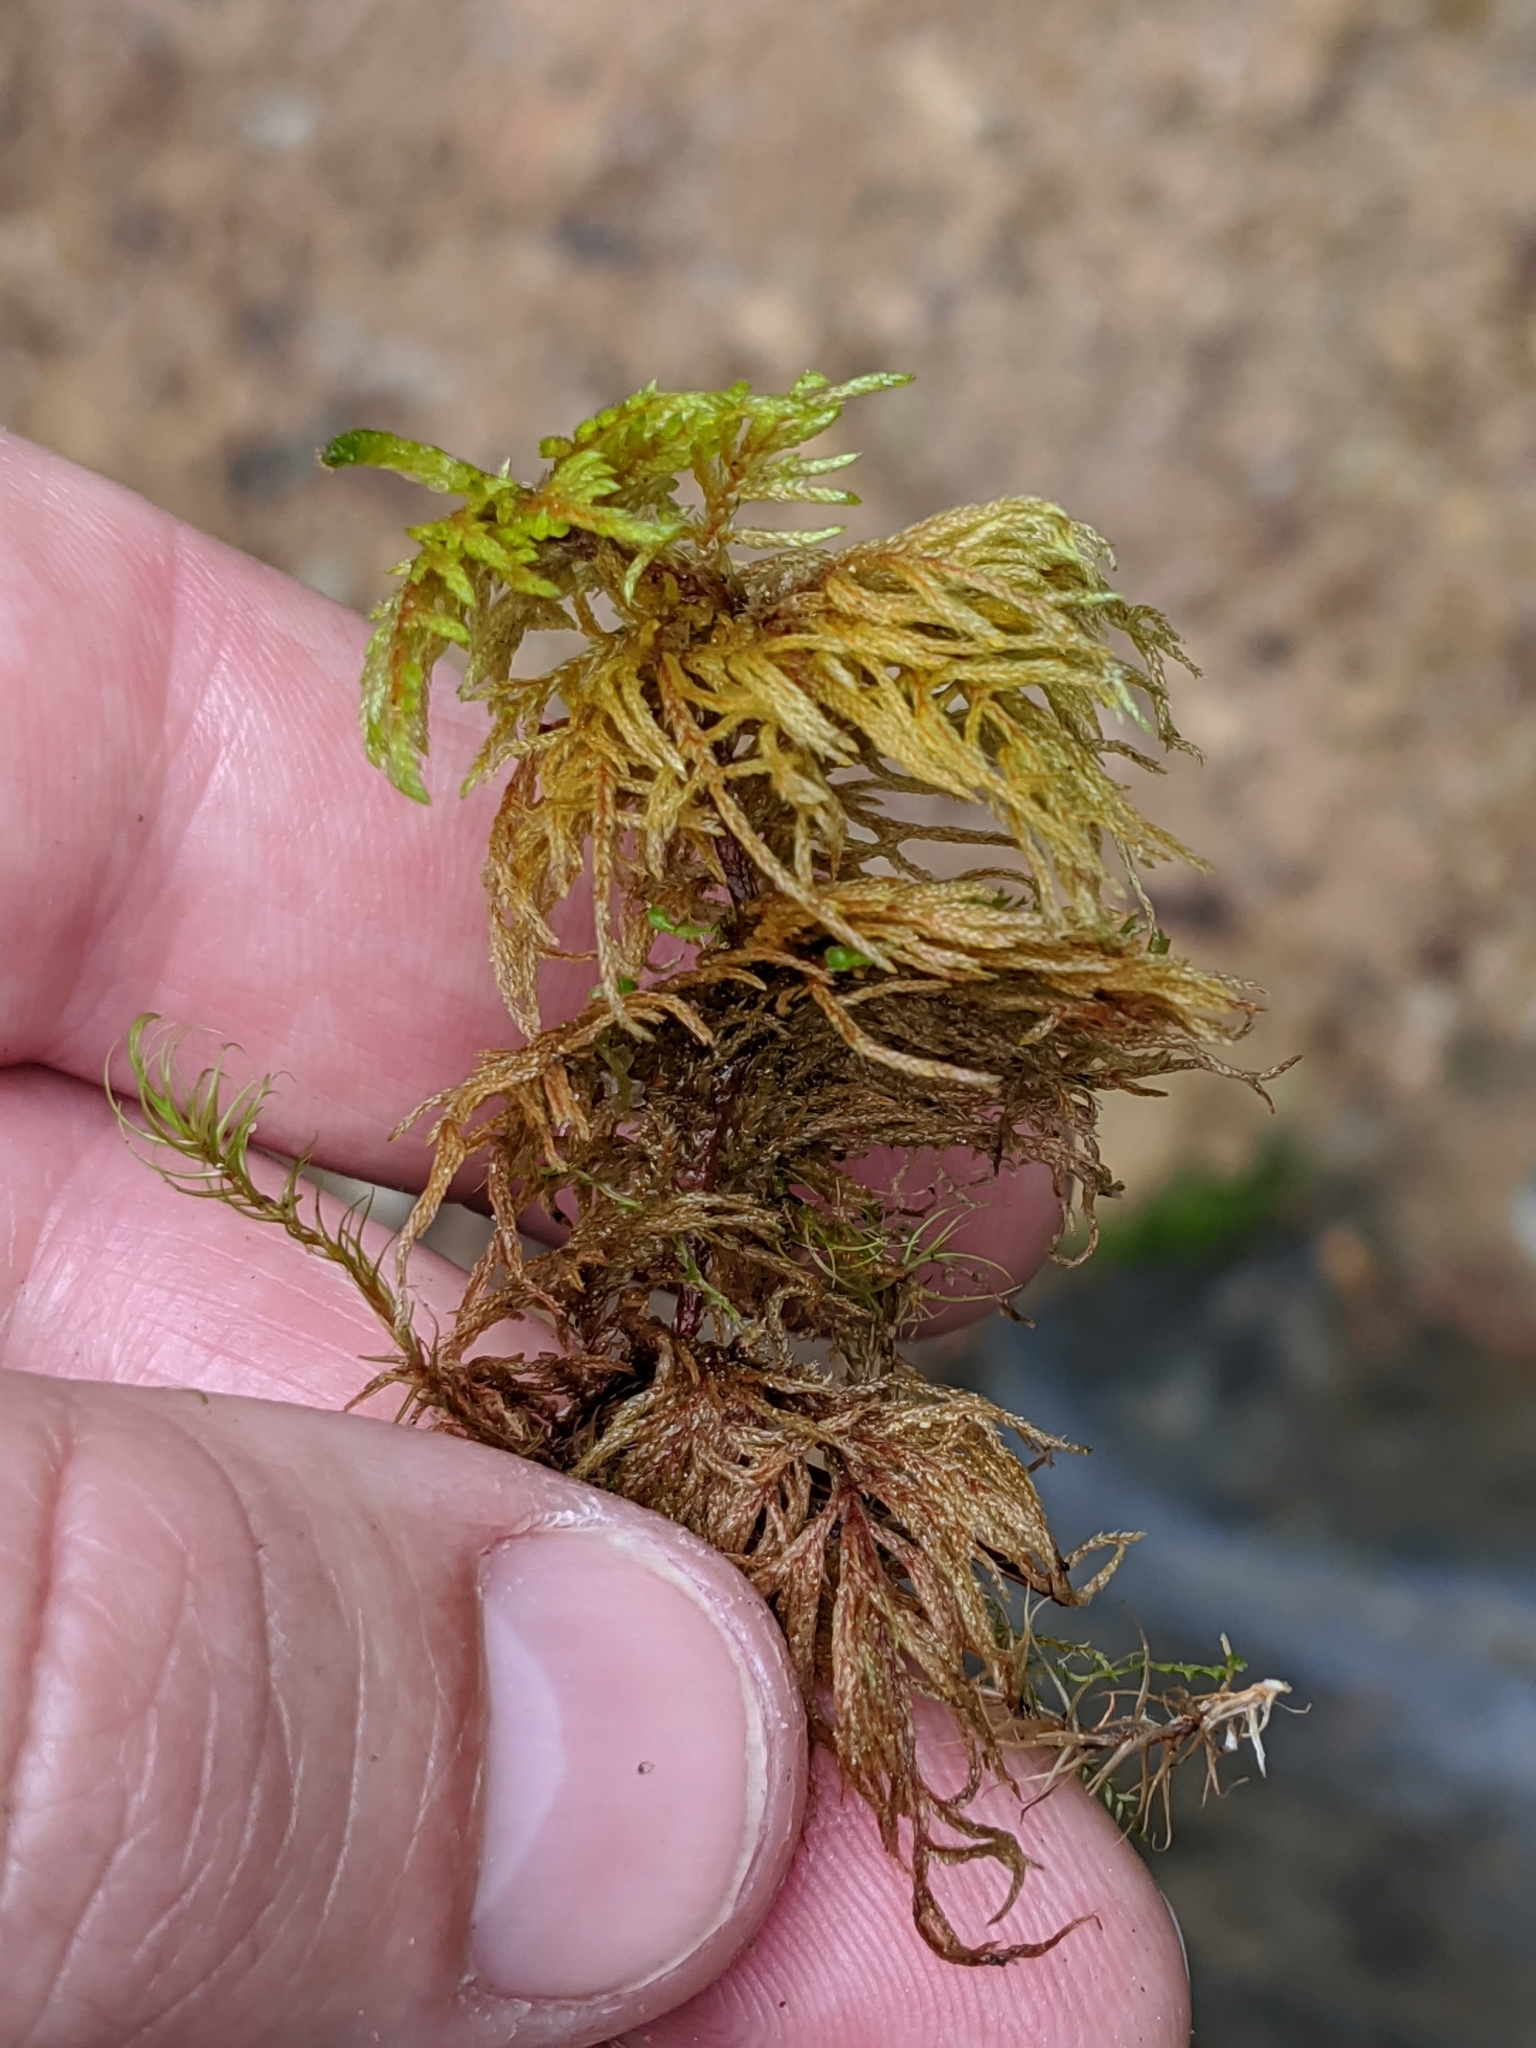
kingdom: Plantae
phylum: Bryophyta
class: Bryopsida
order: Hypnales
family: Hylocomiaceae
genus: Hylocomium
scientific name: Hylocomium splendens
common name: Stairstep moss
